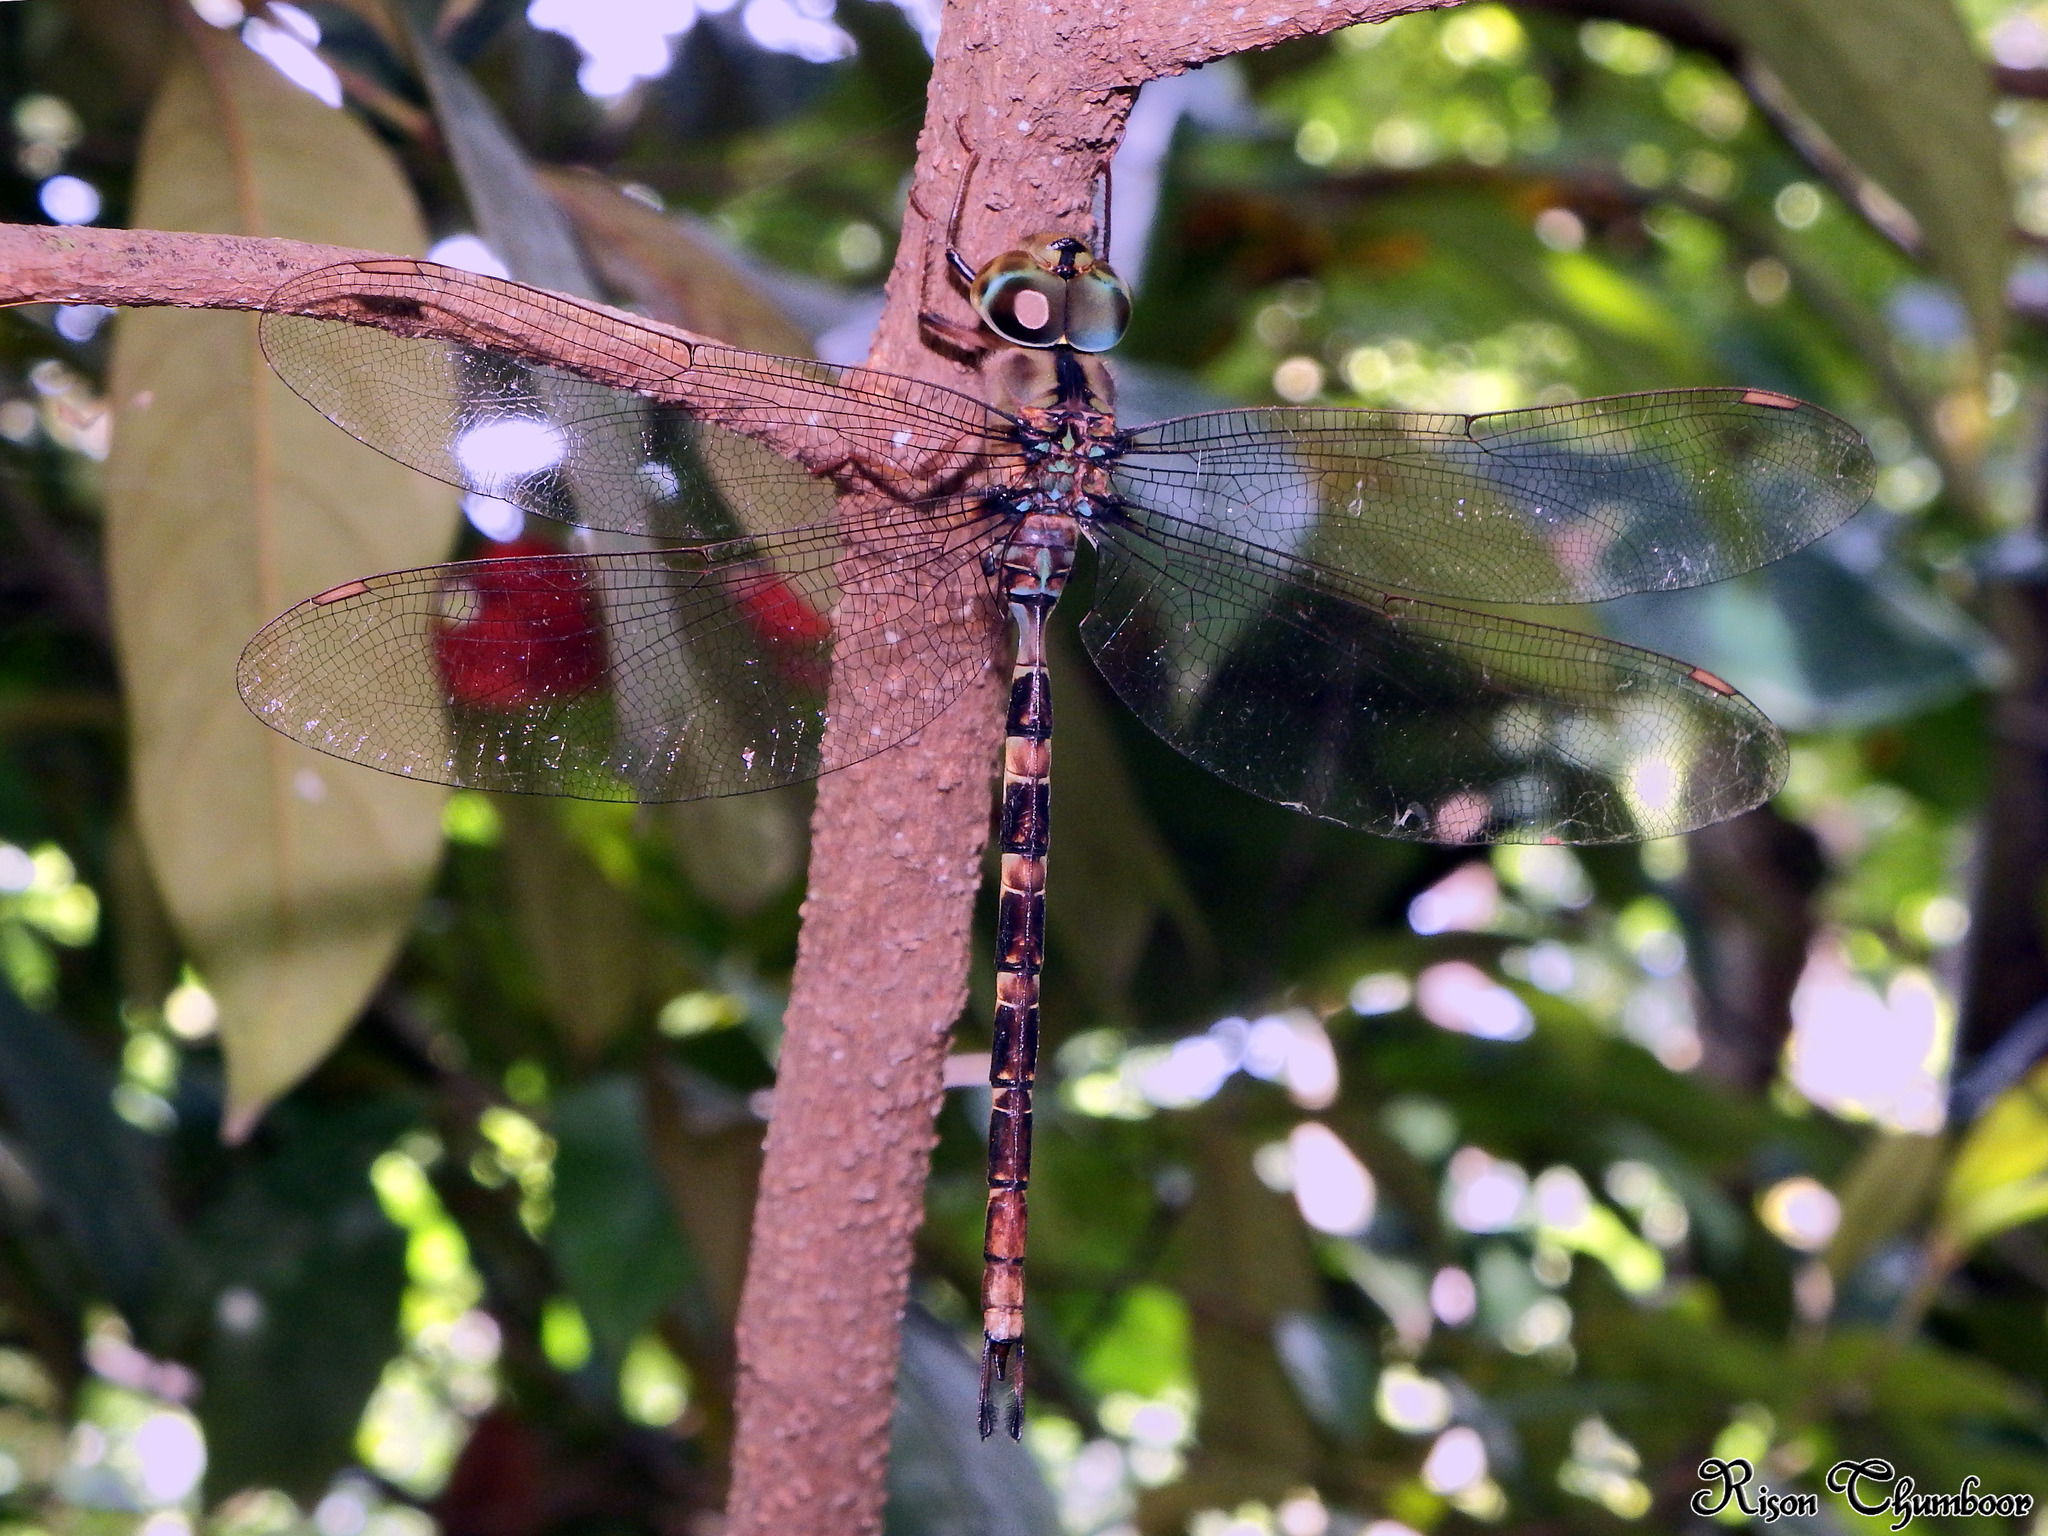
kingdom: Animalia
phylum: Arthropoda
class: Insecta
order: Odonata
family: Aeshnidae
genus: Gynacantha
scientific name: Gynacantha dravida
